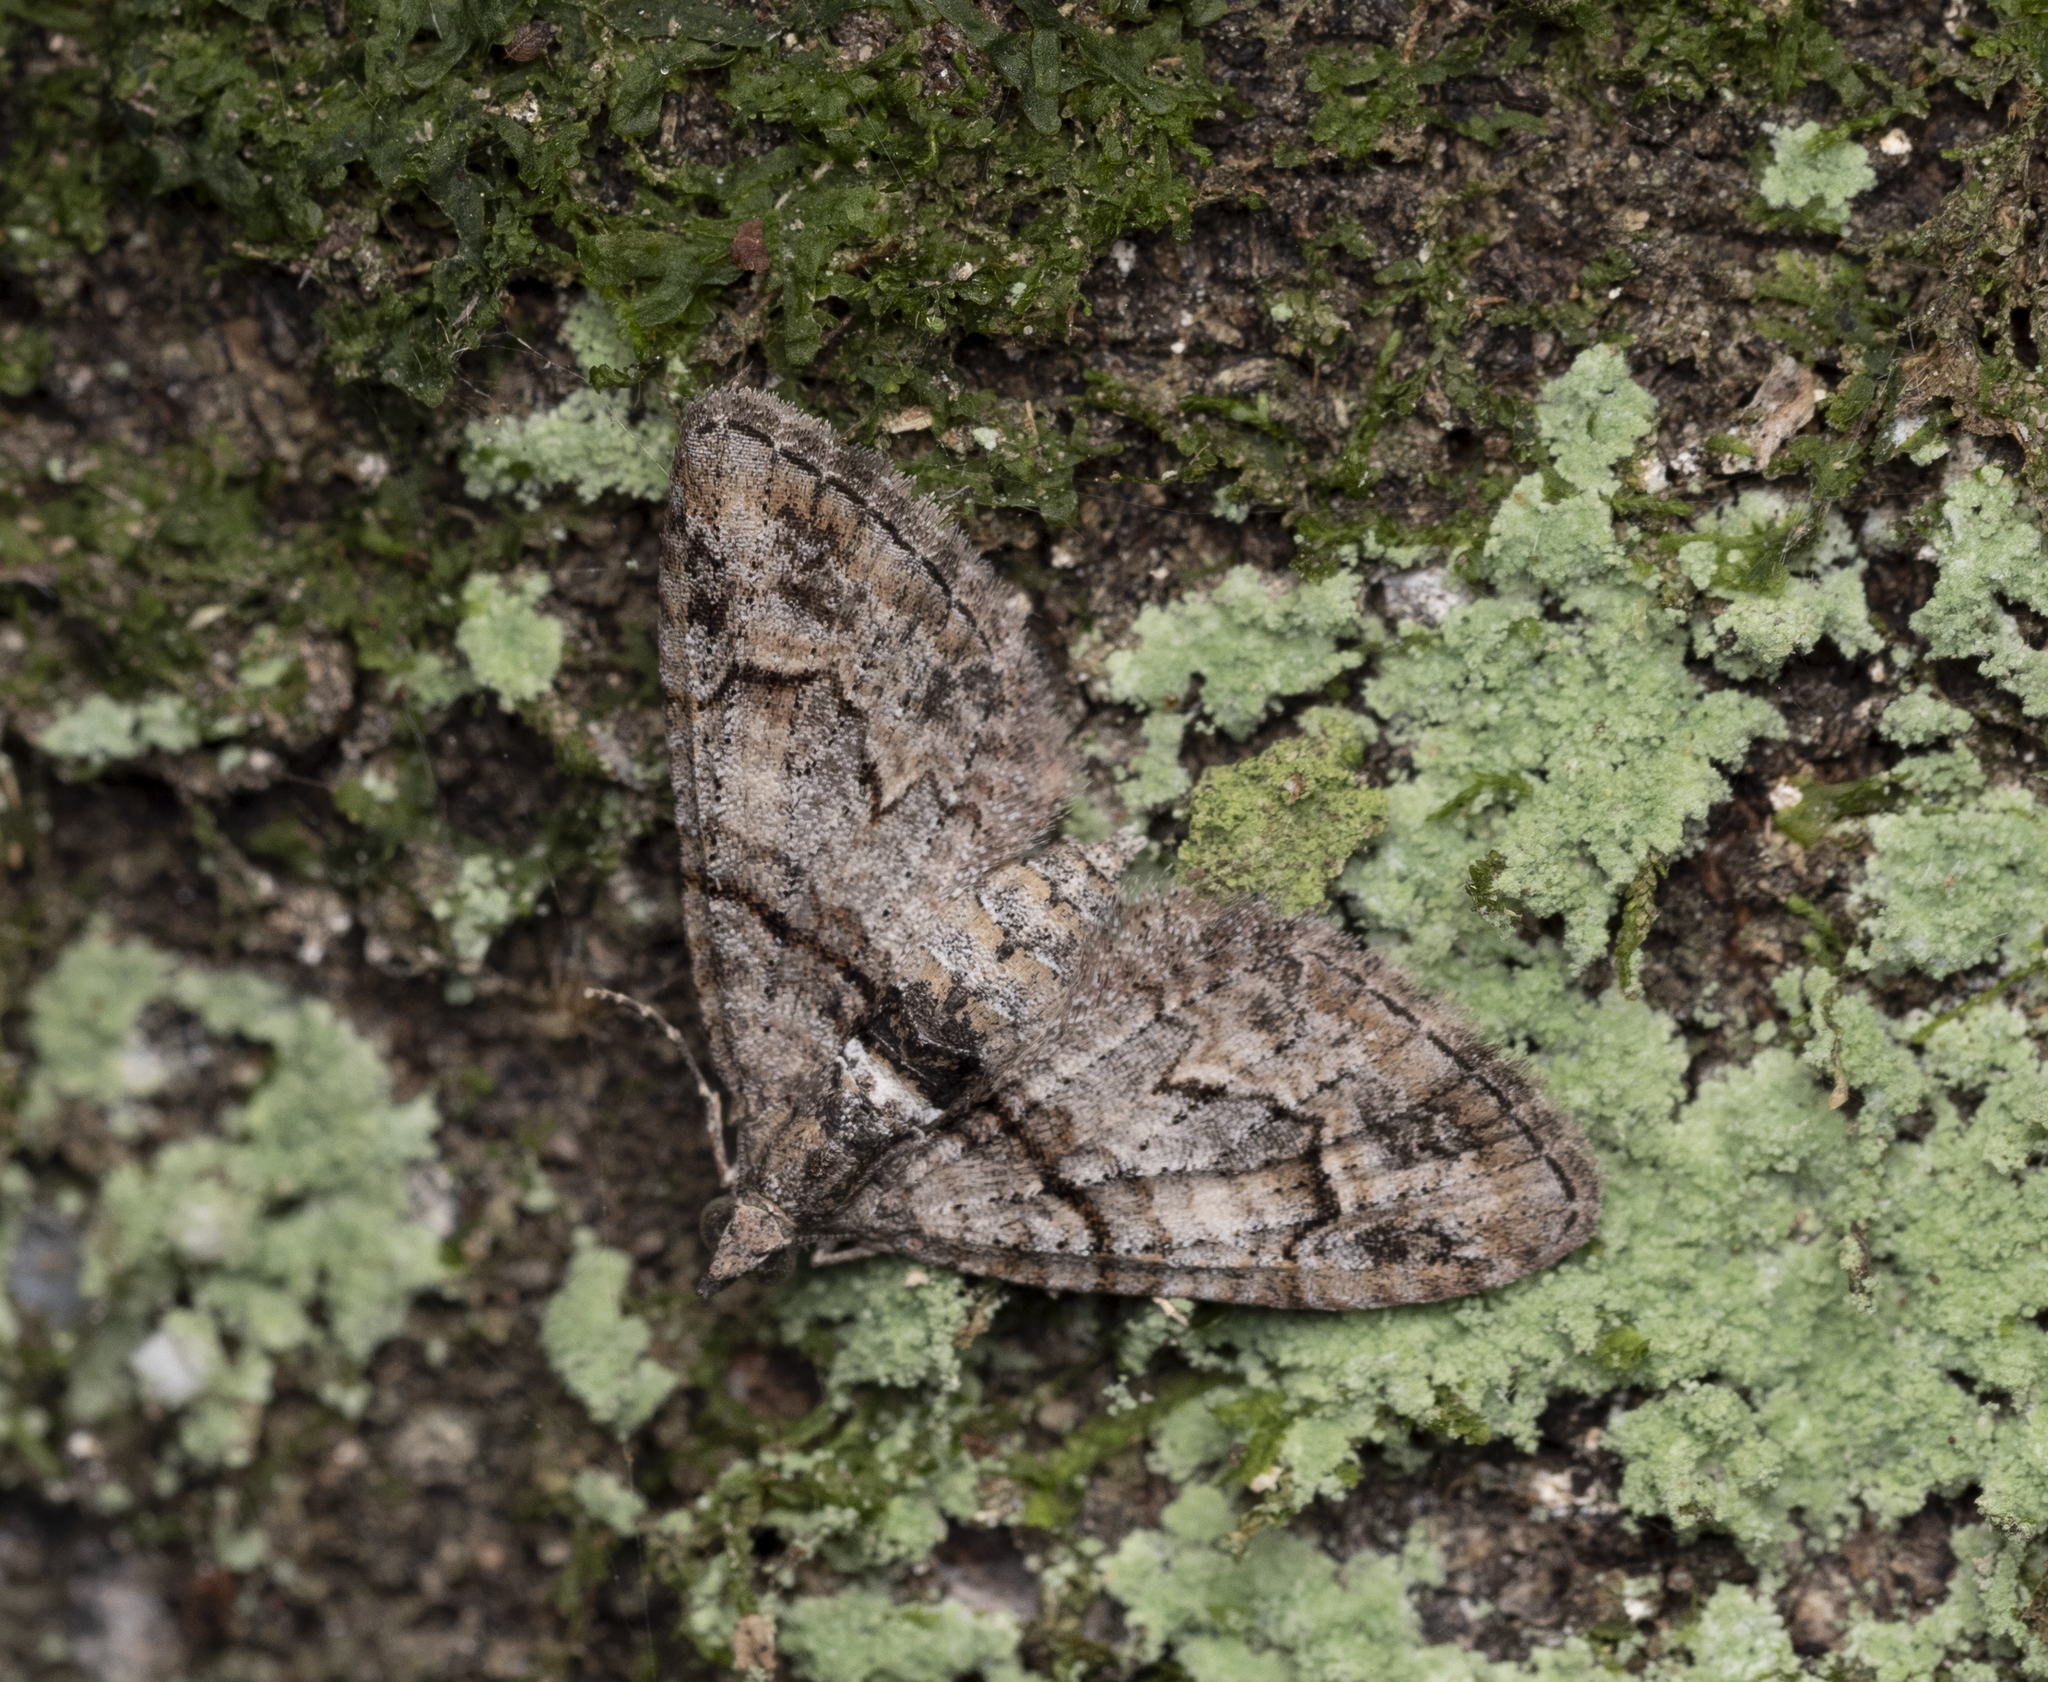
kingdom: Animalia
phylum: Arthropoda
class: Insecta
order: Lepidoptera
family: Geometridae
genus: Phrissogonus
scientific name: Phrissogonus laticostata
